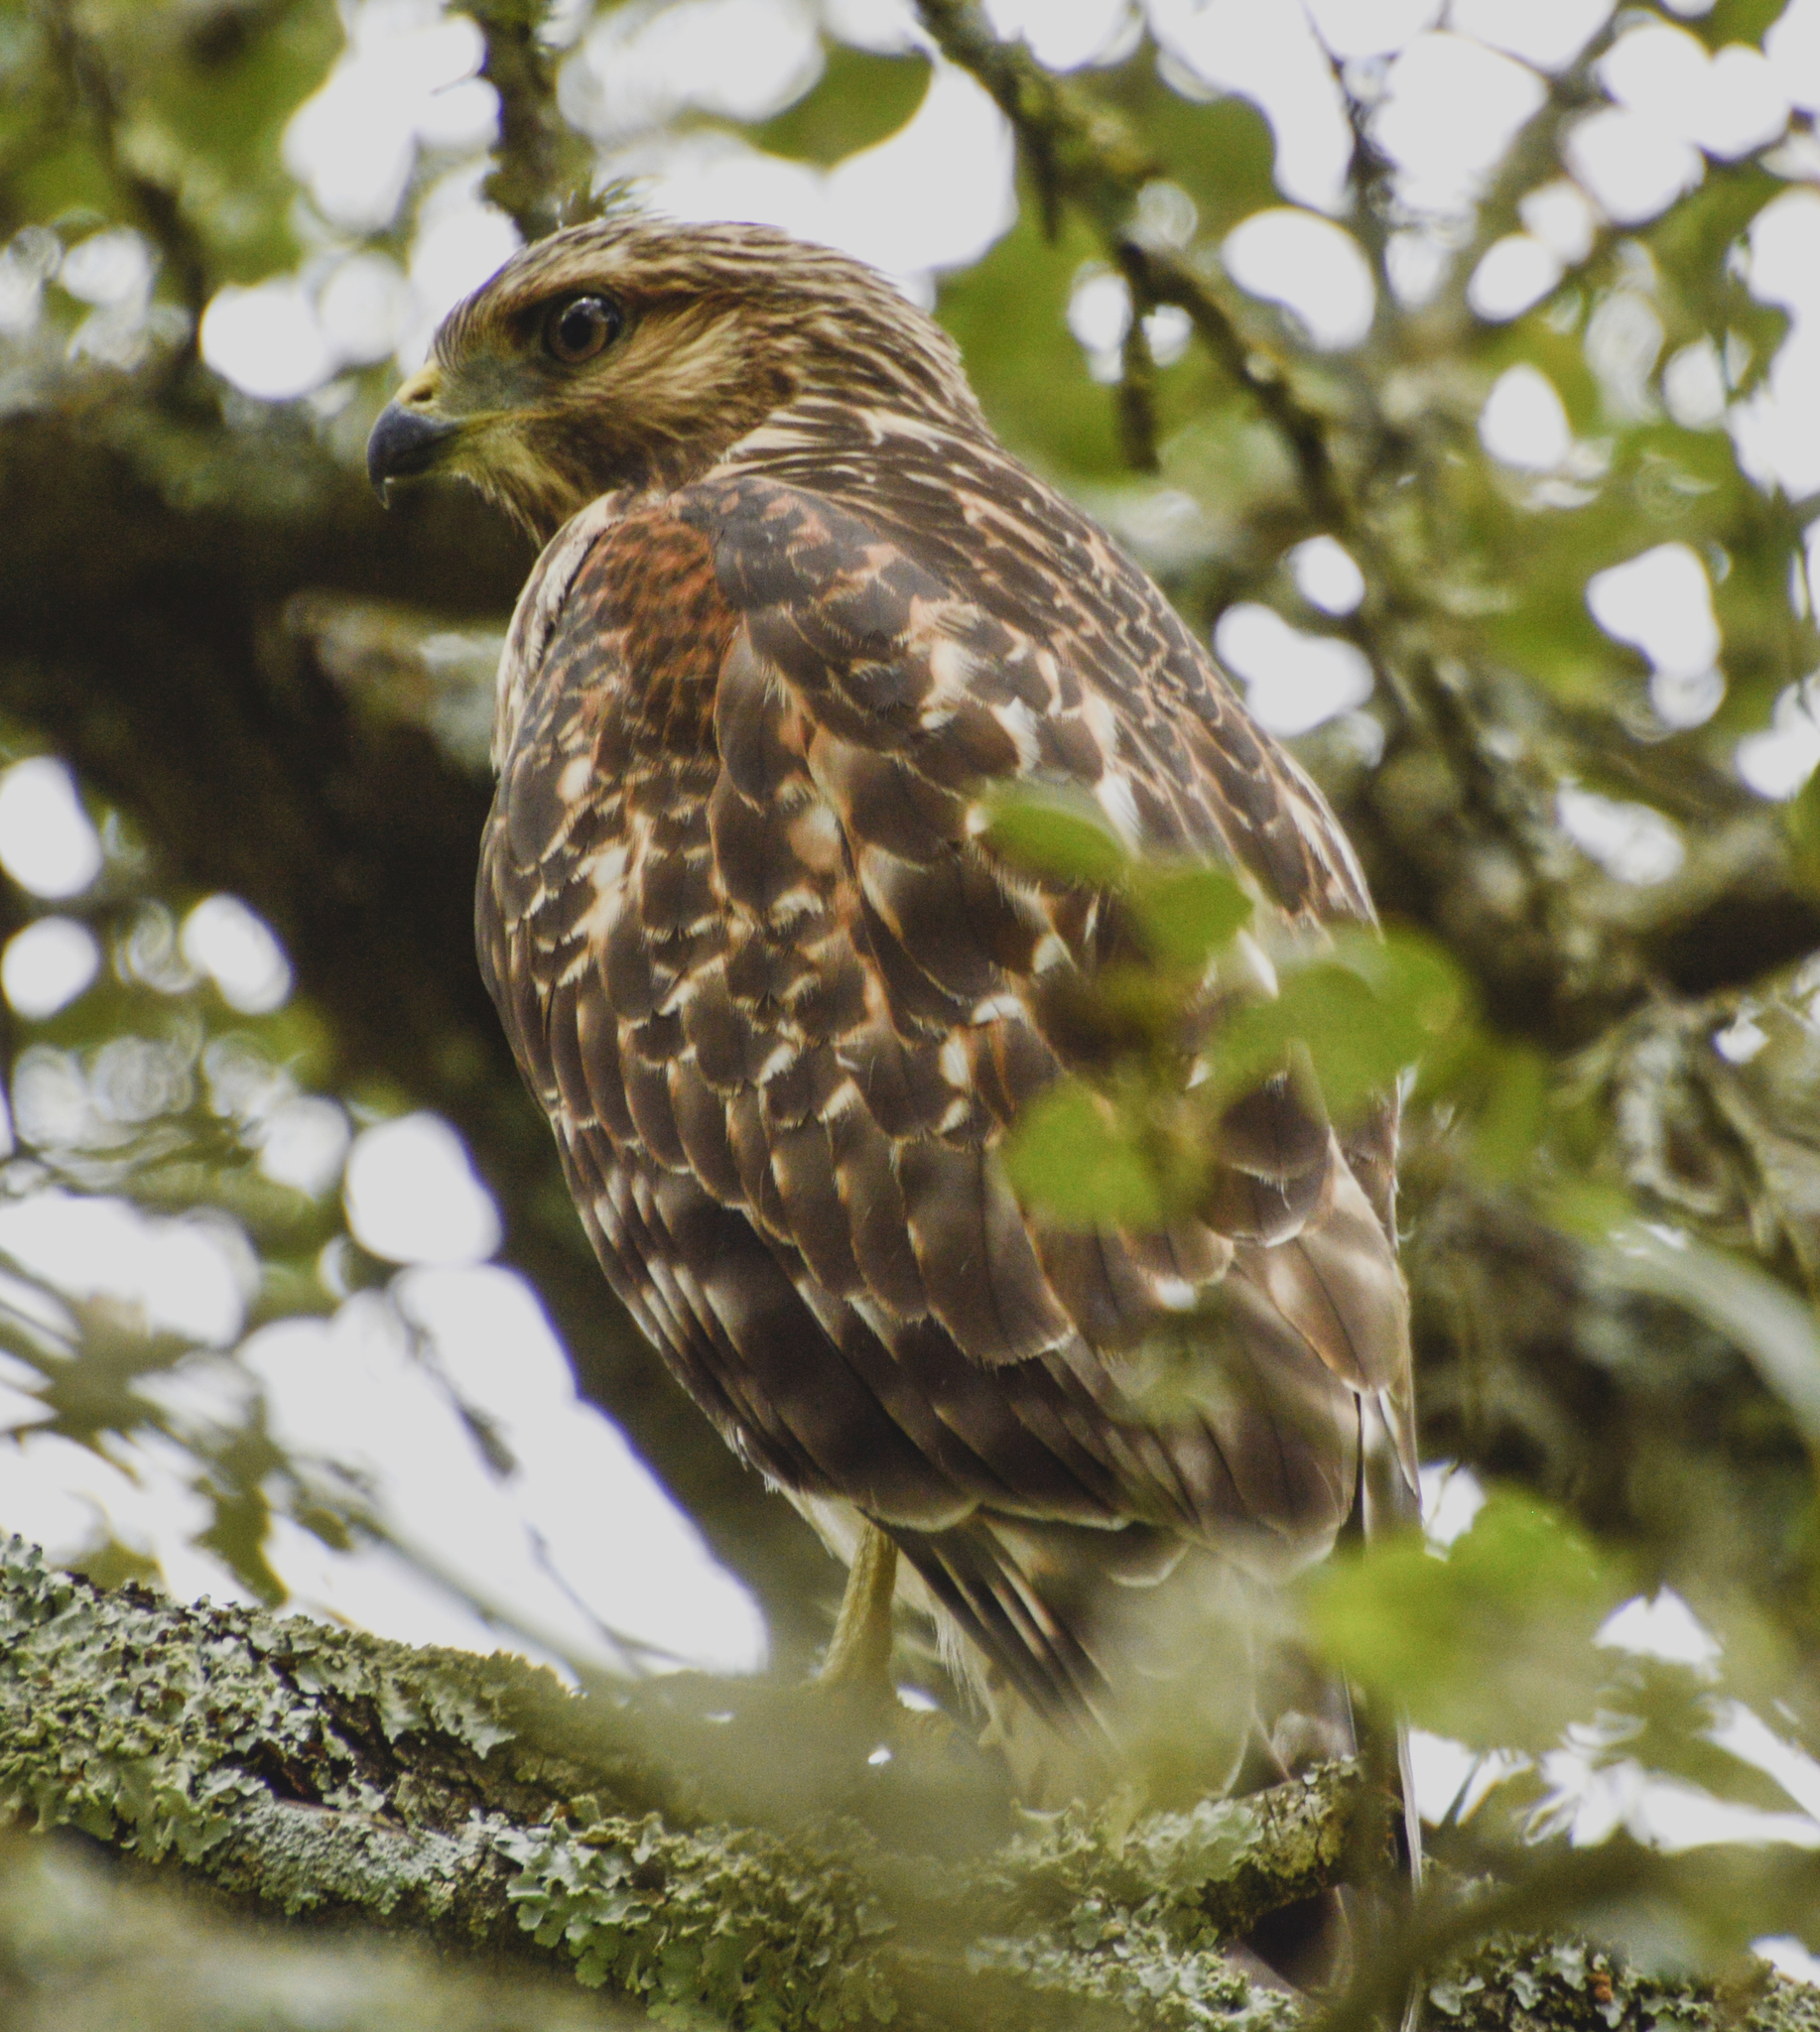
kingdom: Animalia
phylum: Chordata
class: Aves
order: Accipitriformes
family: Accipitridae
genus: Buteo
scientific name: Buteo lineatus
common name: Red-shouldered hawk
